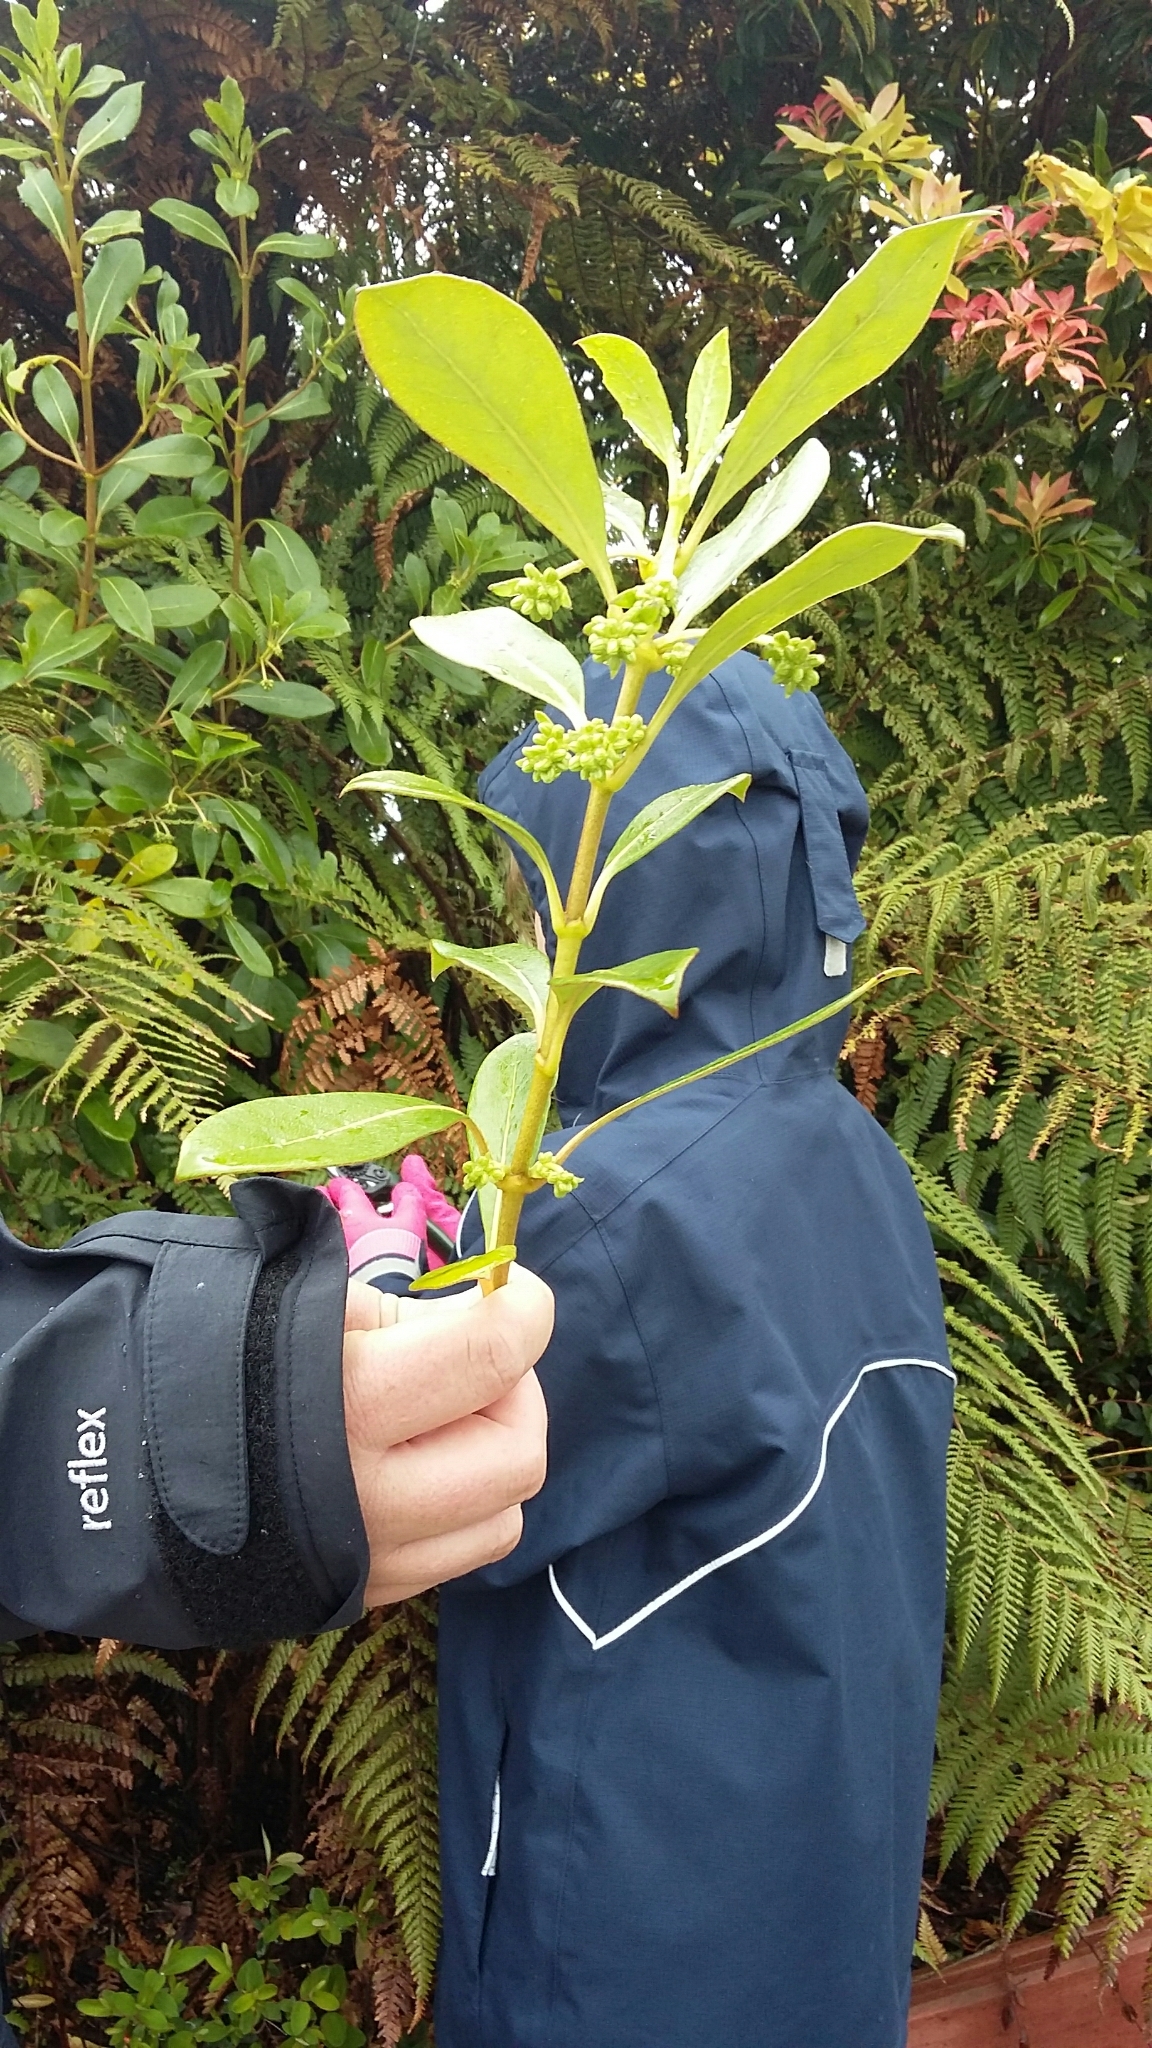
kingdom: Plantae
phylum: Tracheophyta
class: Magnoliopsida
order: Gentianales
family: Rubiaceae
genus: Coprosma
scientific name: Coprosma lucida
